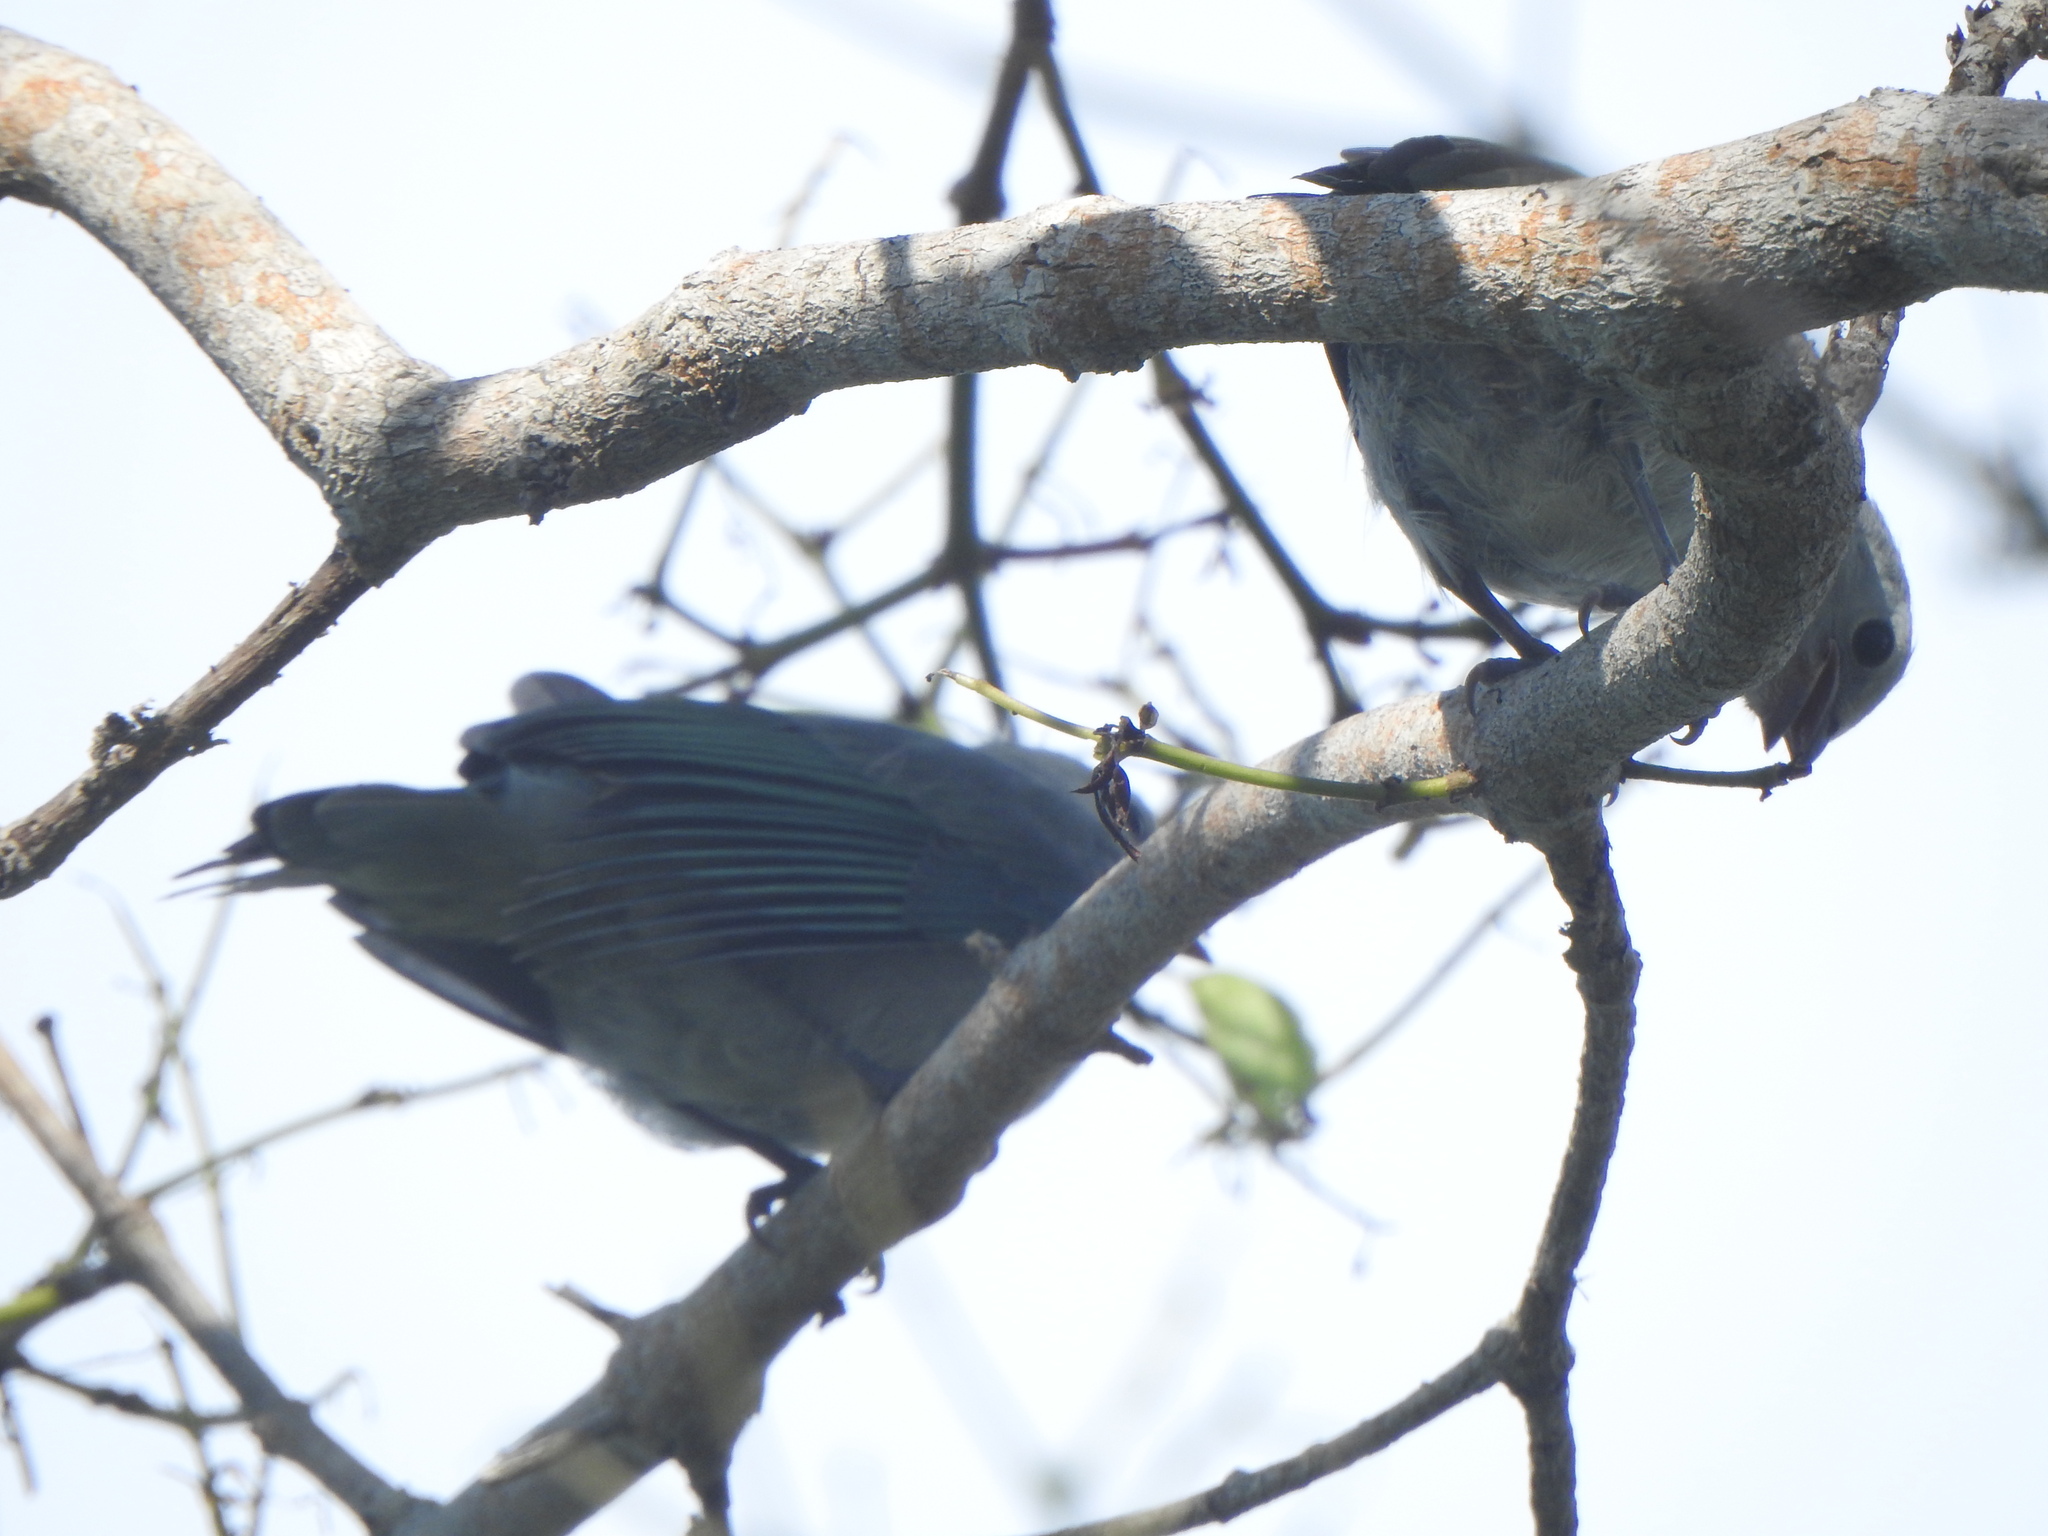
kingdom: Animalia
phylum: Chordata
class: Aves
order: Passeriformes
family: Thraupidae
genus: Thraupis
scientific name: Thraupis episcopus
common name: Blue-grey tanager
